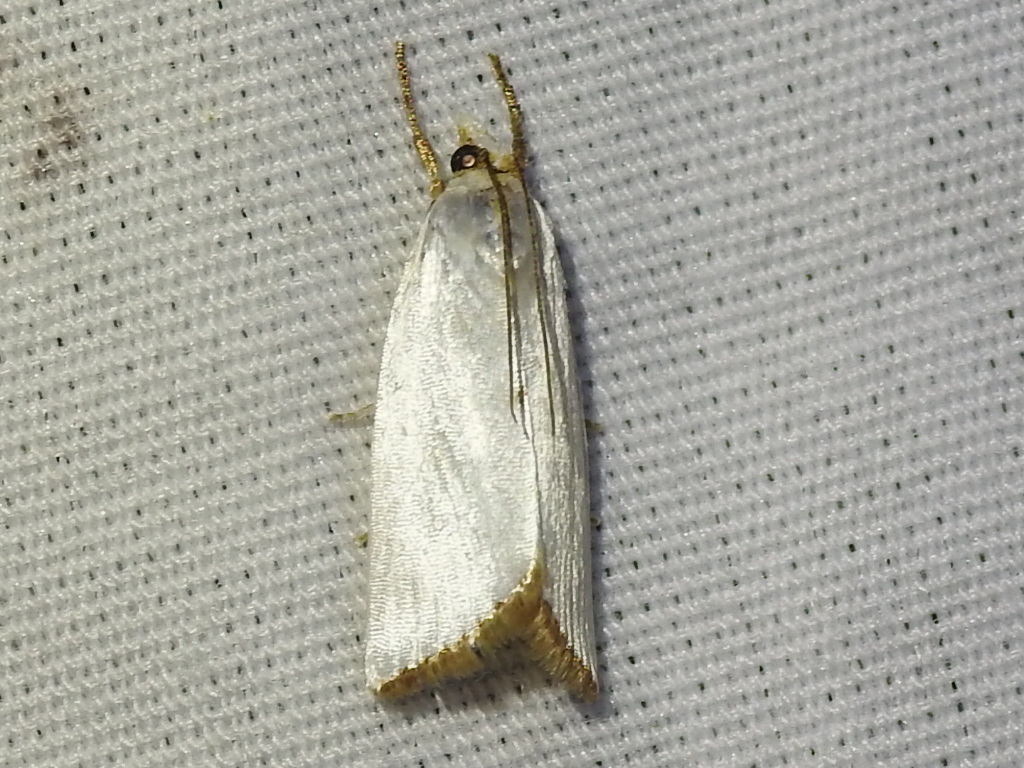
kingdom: Animalia
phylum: Arthropoda
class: Insecta
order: Lepidoptera
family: Crambidae
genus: Argyria
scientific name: Argyria nivalis
